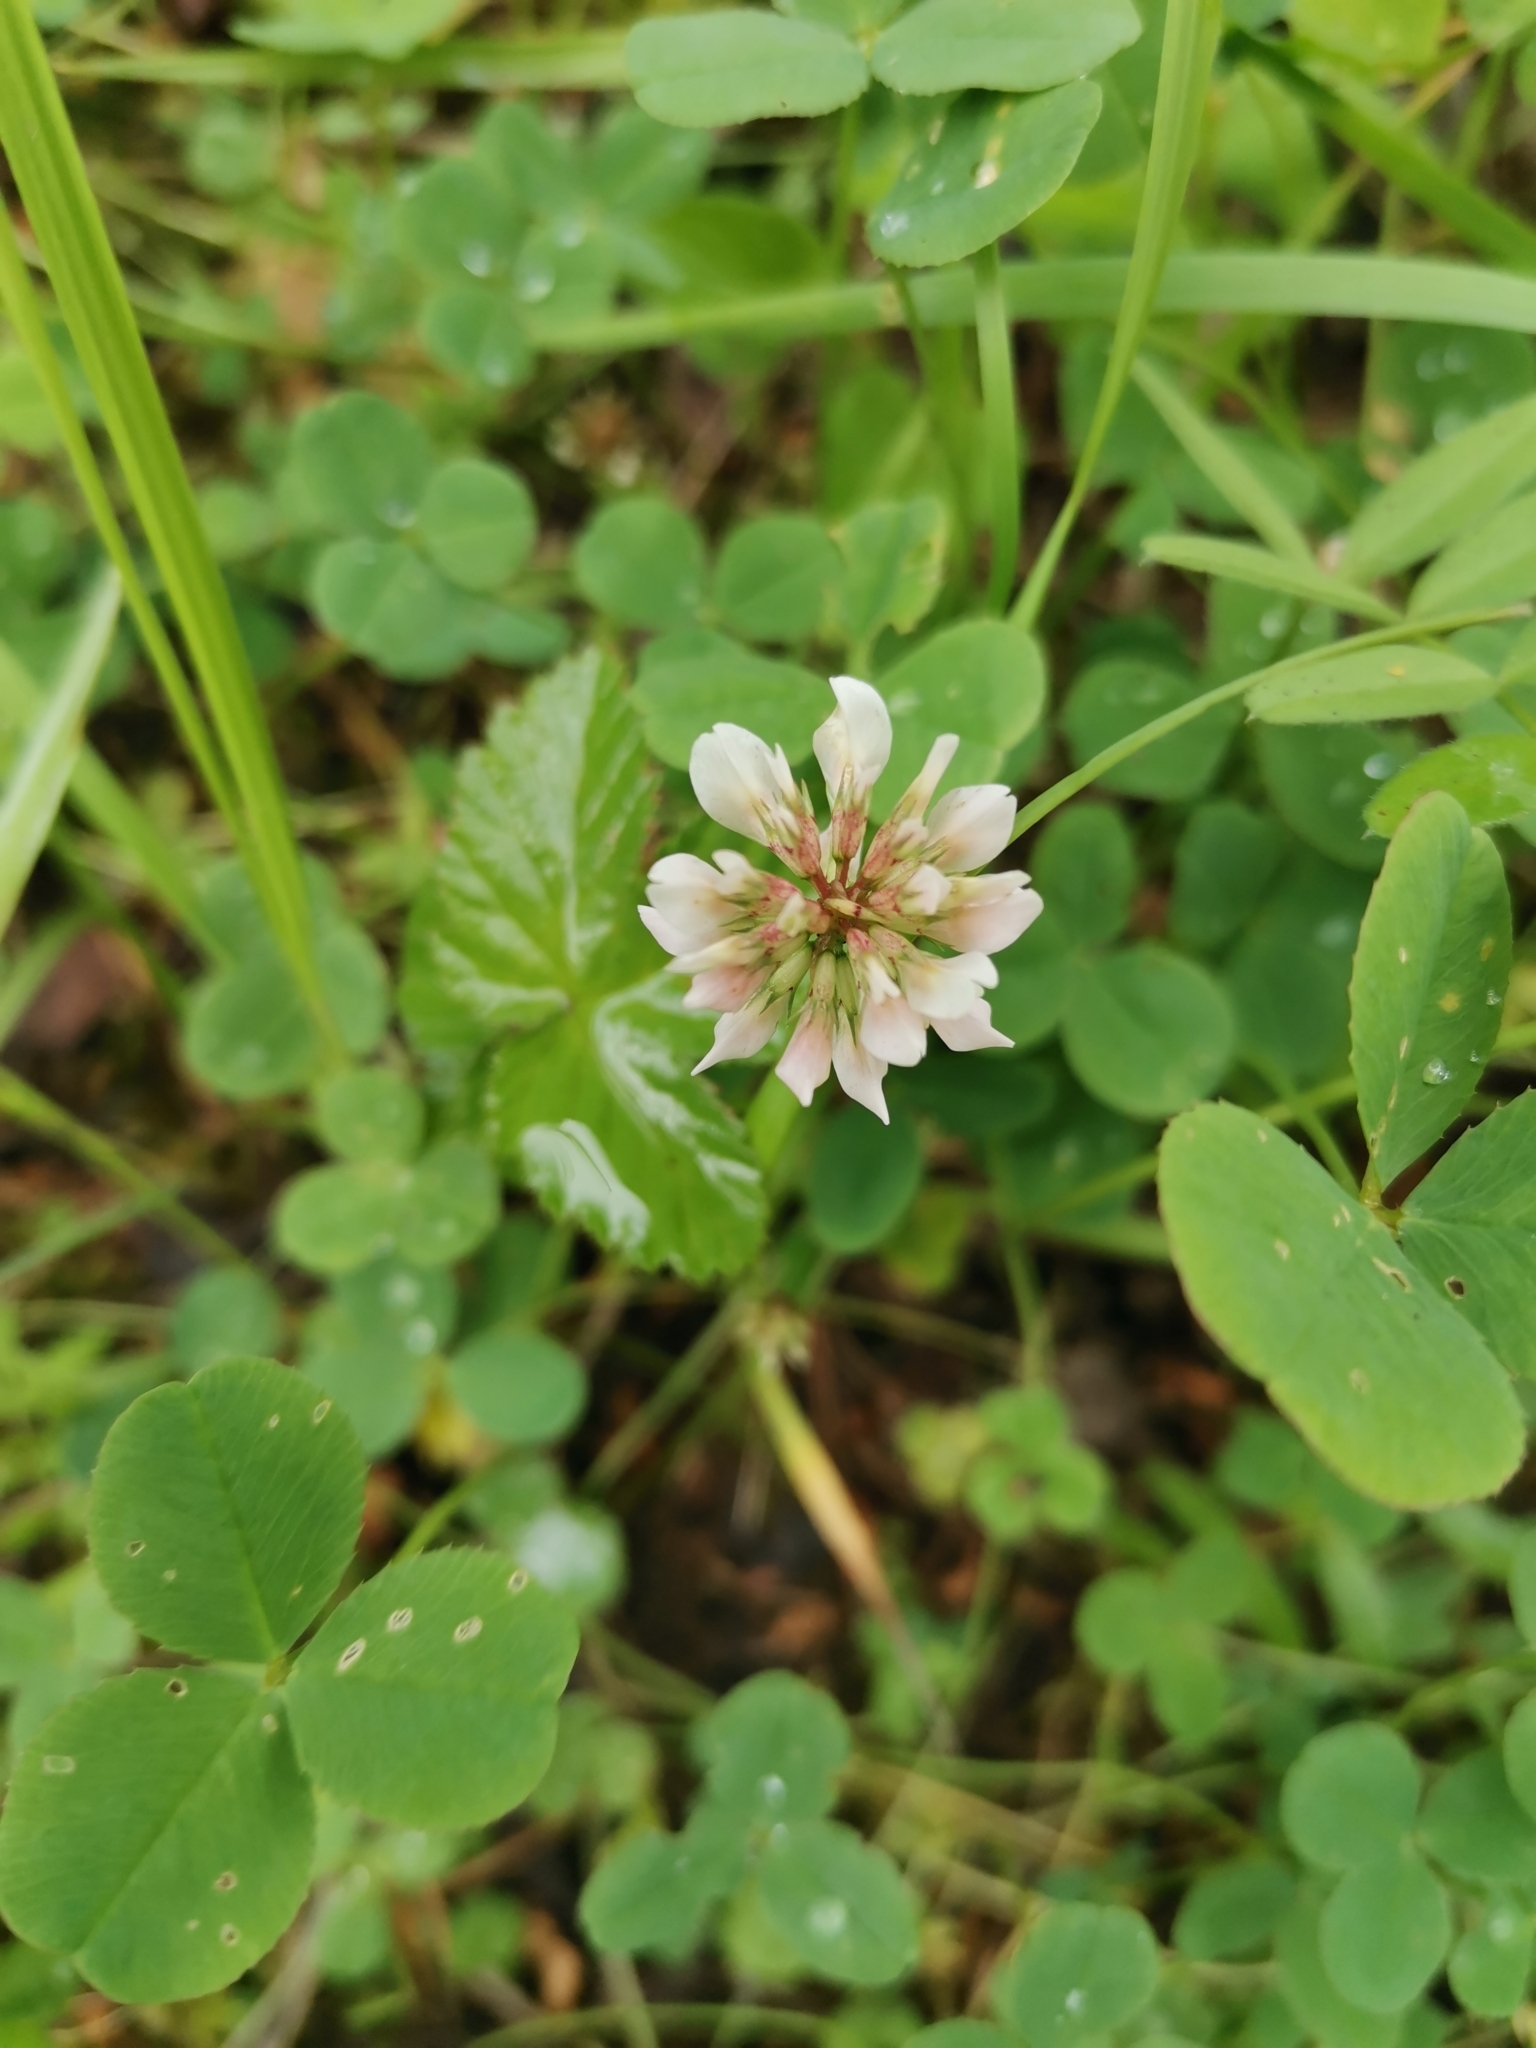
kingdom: Plantae
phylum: Tracheophyta
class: Magnoliopsida
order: Fabales
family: Fabaceae
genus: Trifolium
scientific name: Trifolium repens
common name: White clover
